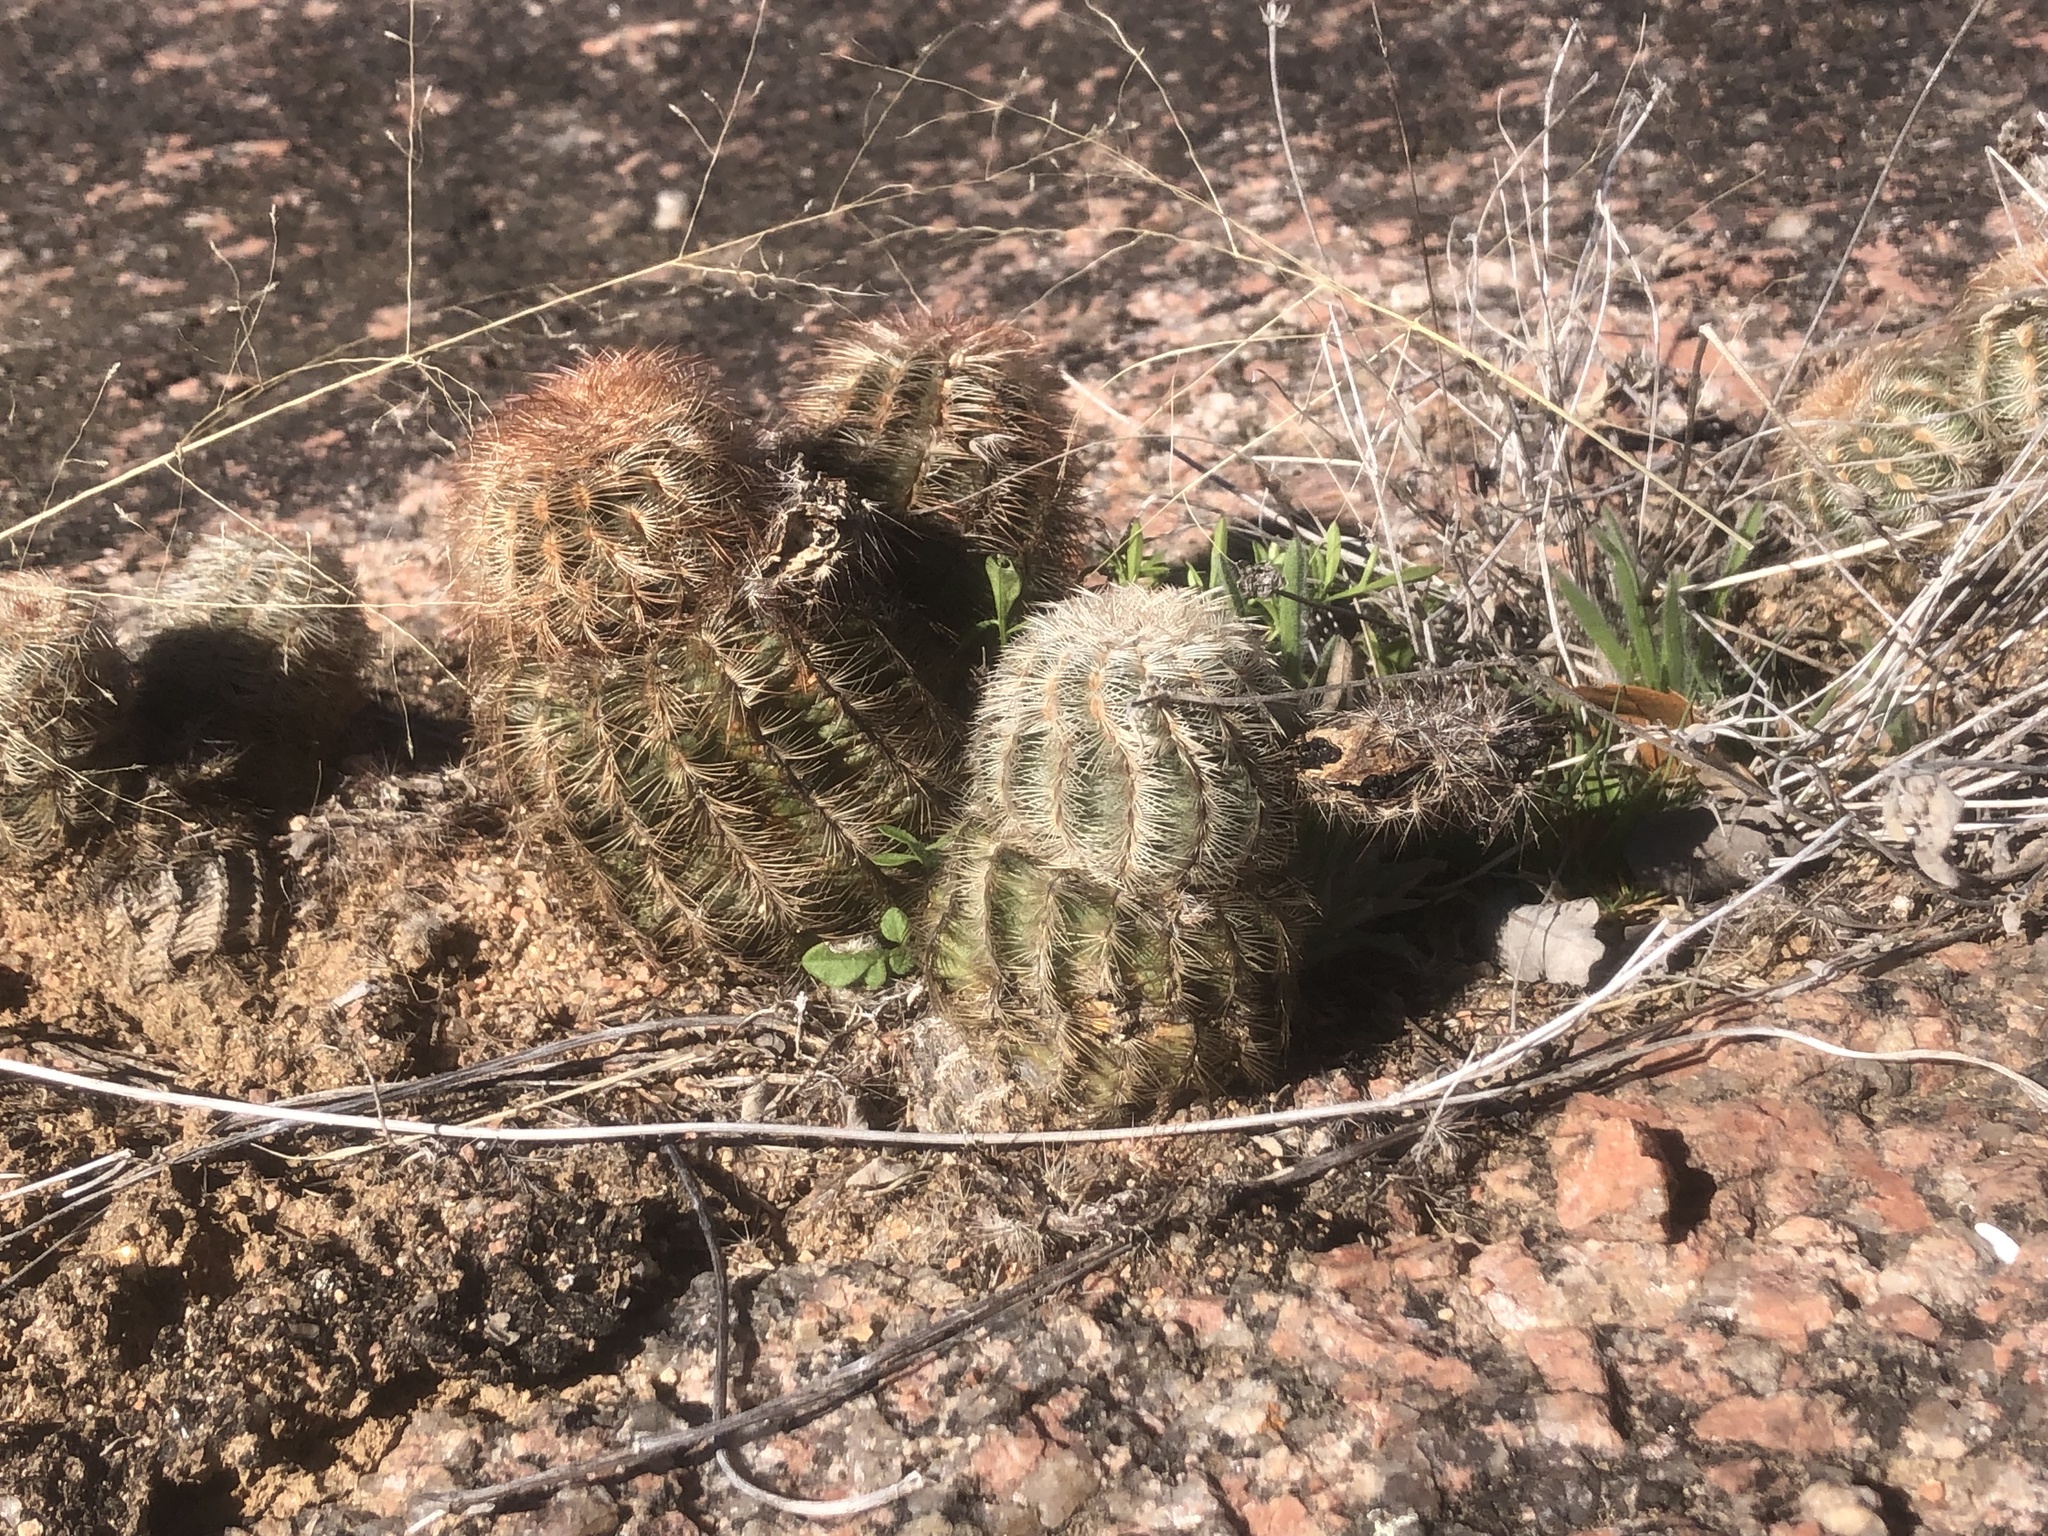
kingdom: Plantae
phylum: Tracheophyta
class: Magnoliopsida
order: Caryophyllales
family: Cactaceae
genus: Echinocereus
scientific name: Echinocereus reichenbachii
